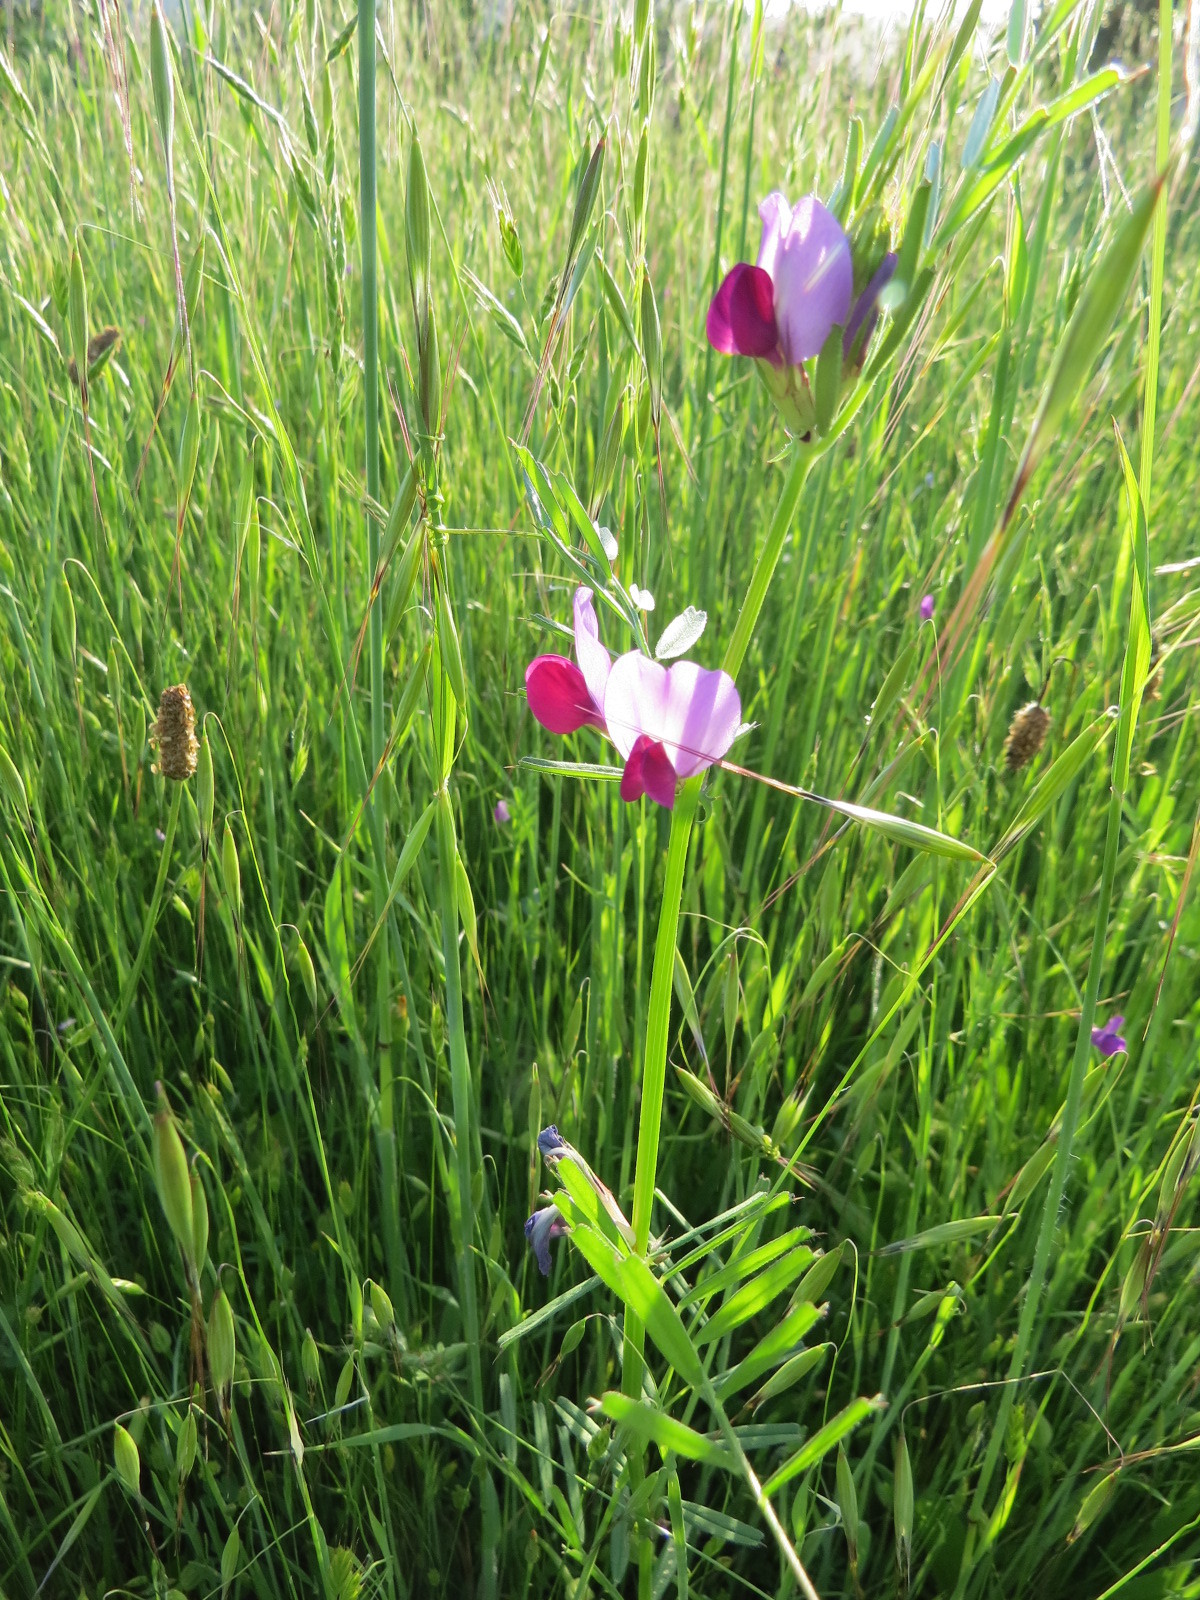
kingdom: Plantae
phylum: Tracheophyta
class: Magnoliopsida
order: Fabales
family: Fabaceae
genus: Vicia
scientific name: Vicia sativa
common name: Garden vetch
